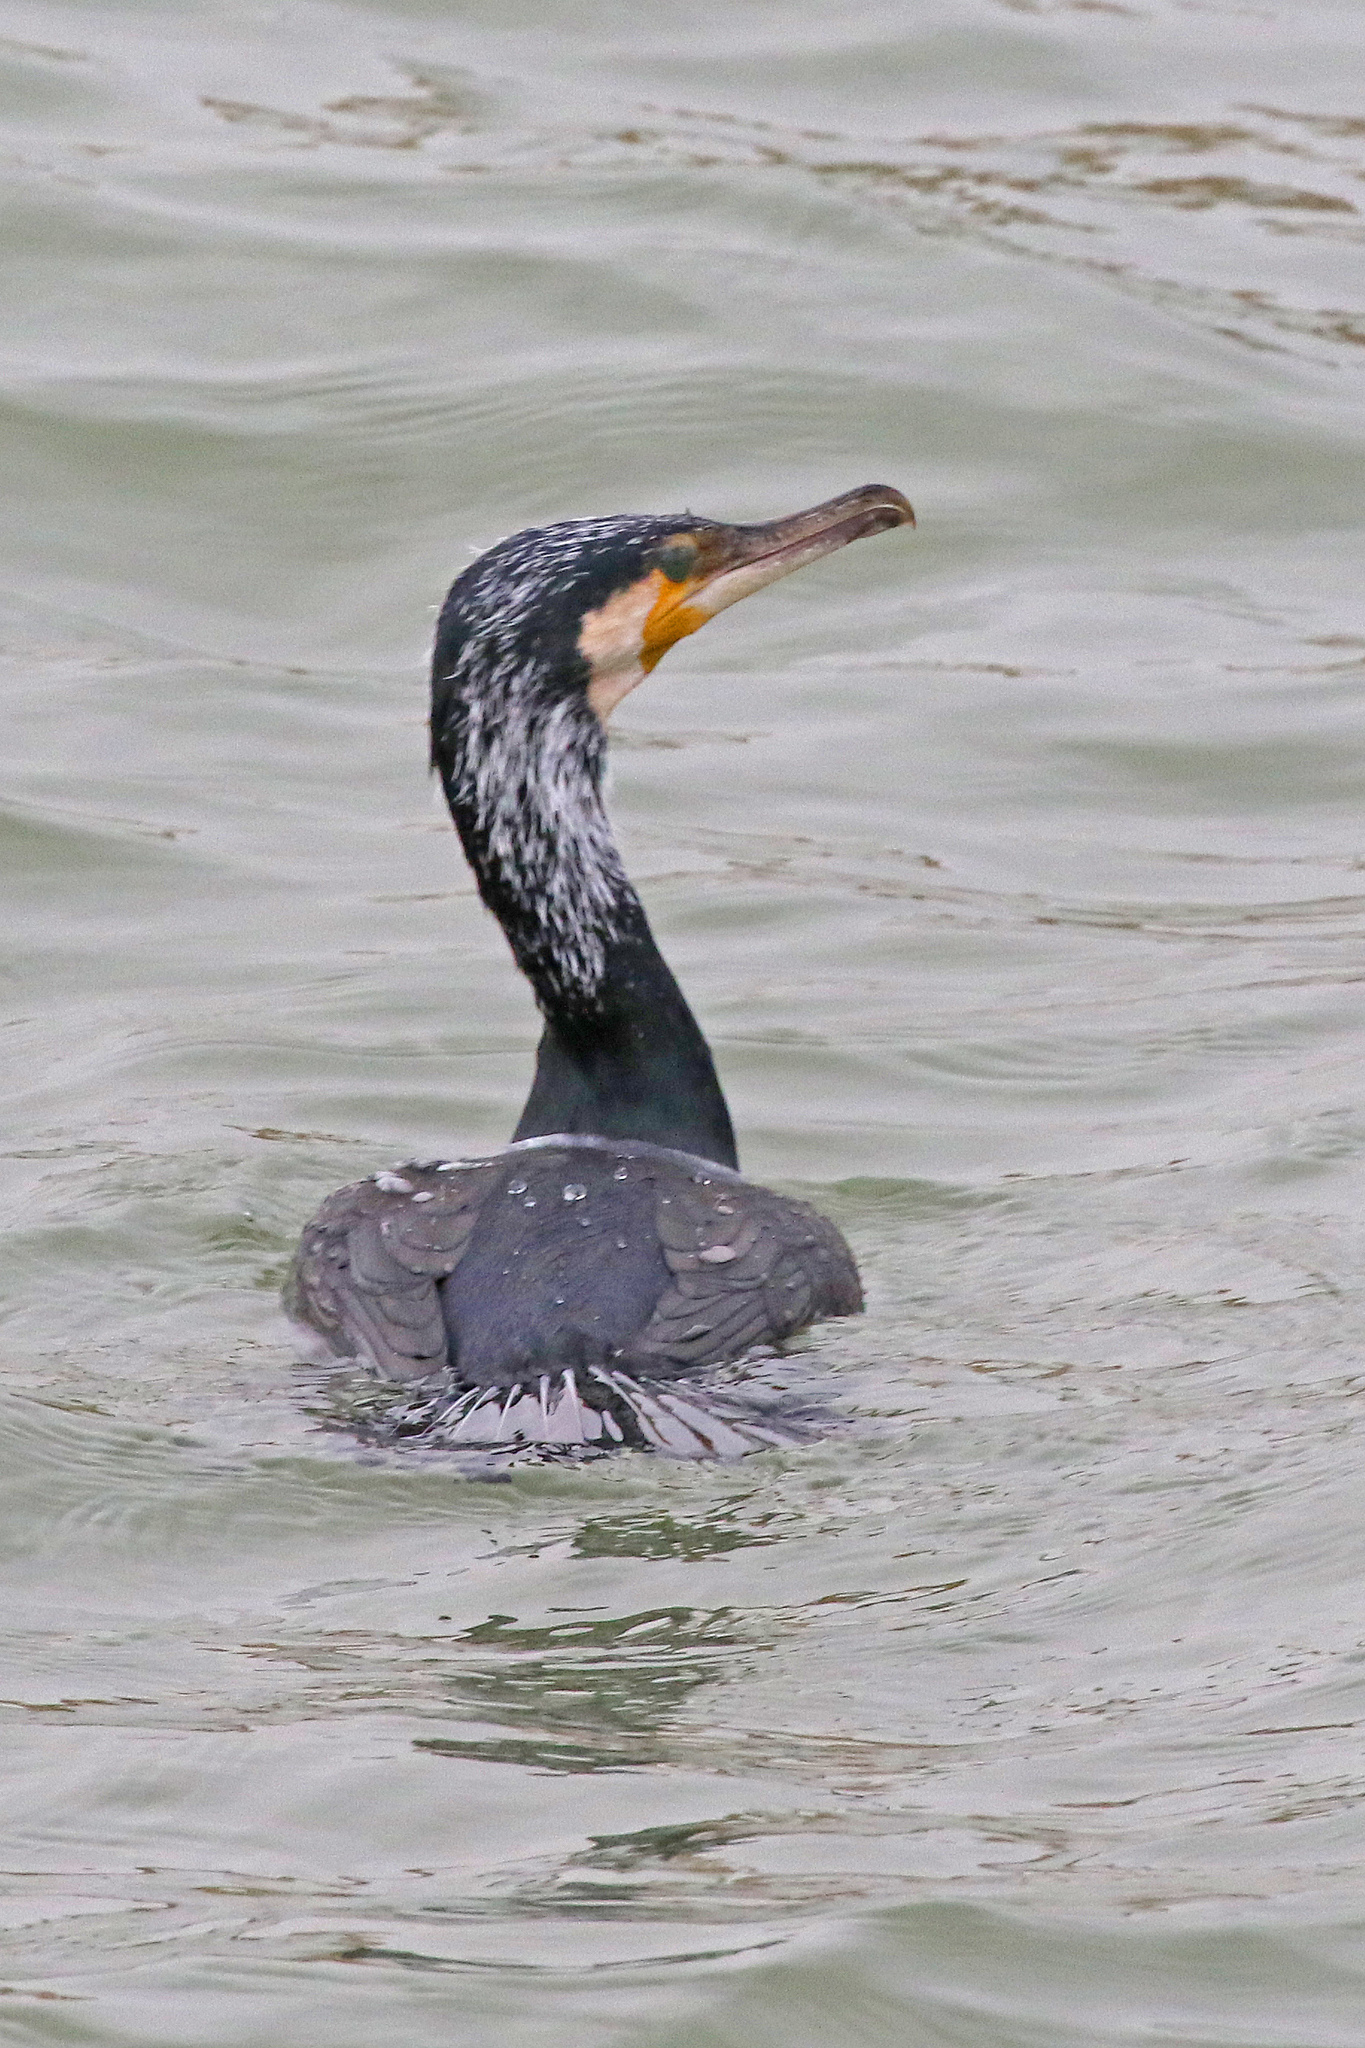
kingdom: Animalia
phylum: Chordata
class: Aves
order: Suliformes
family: Phalacrocoracidae
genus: Phalacrocorax
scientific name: Phalacrocorax carbo
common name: Great cormorant
